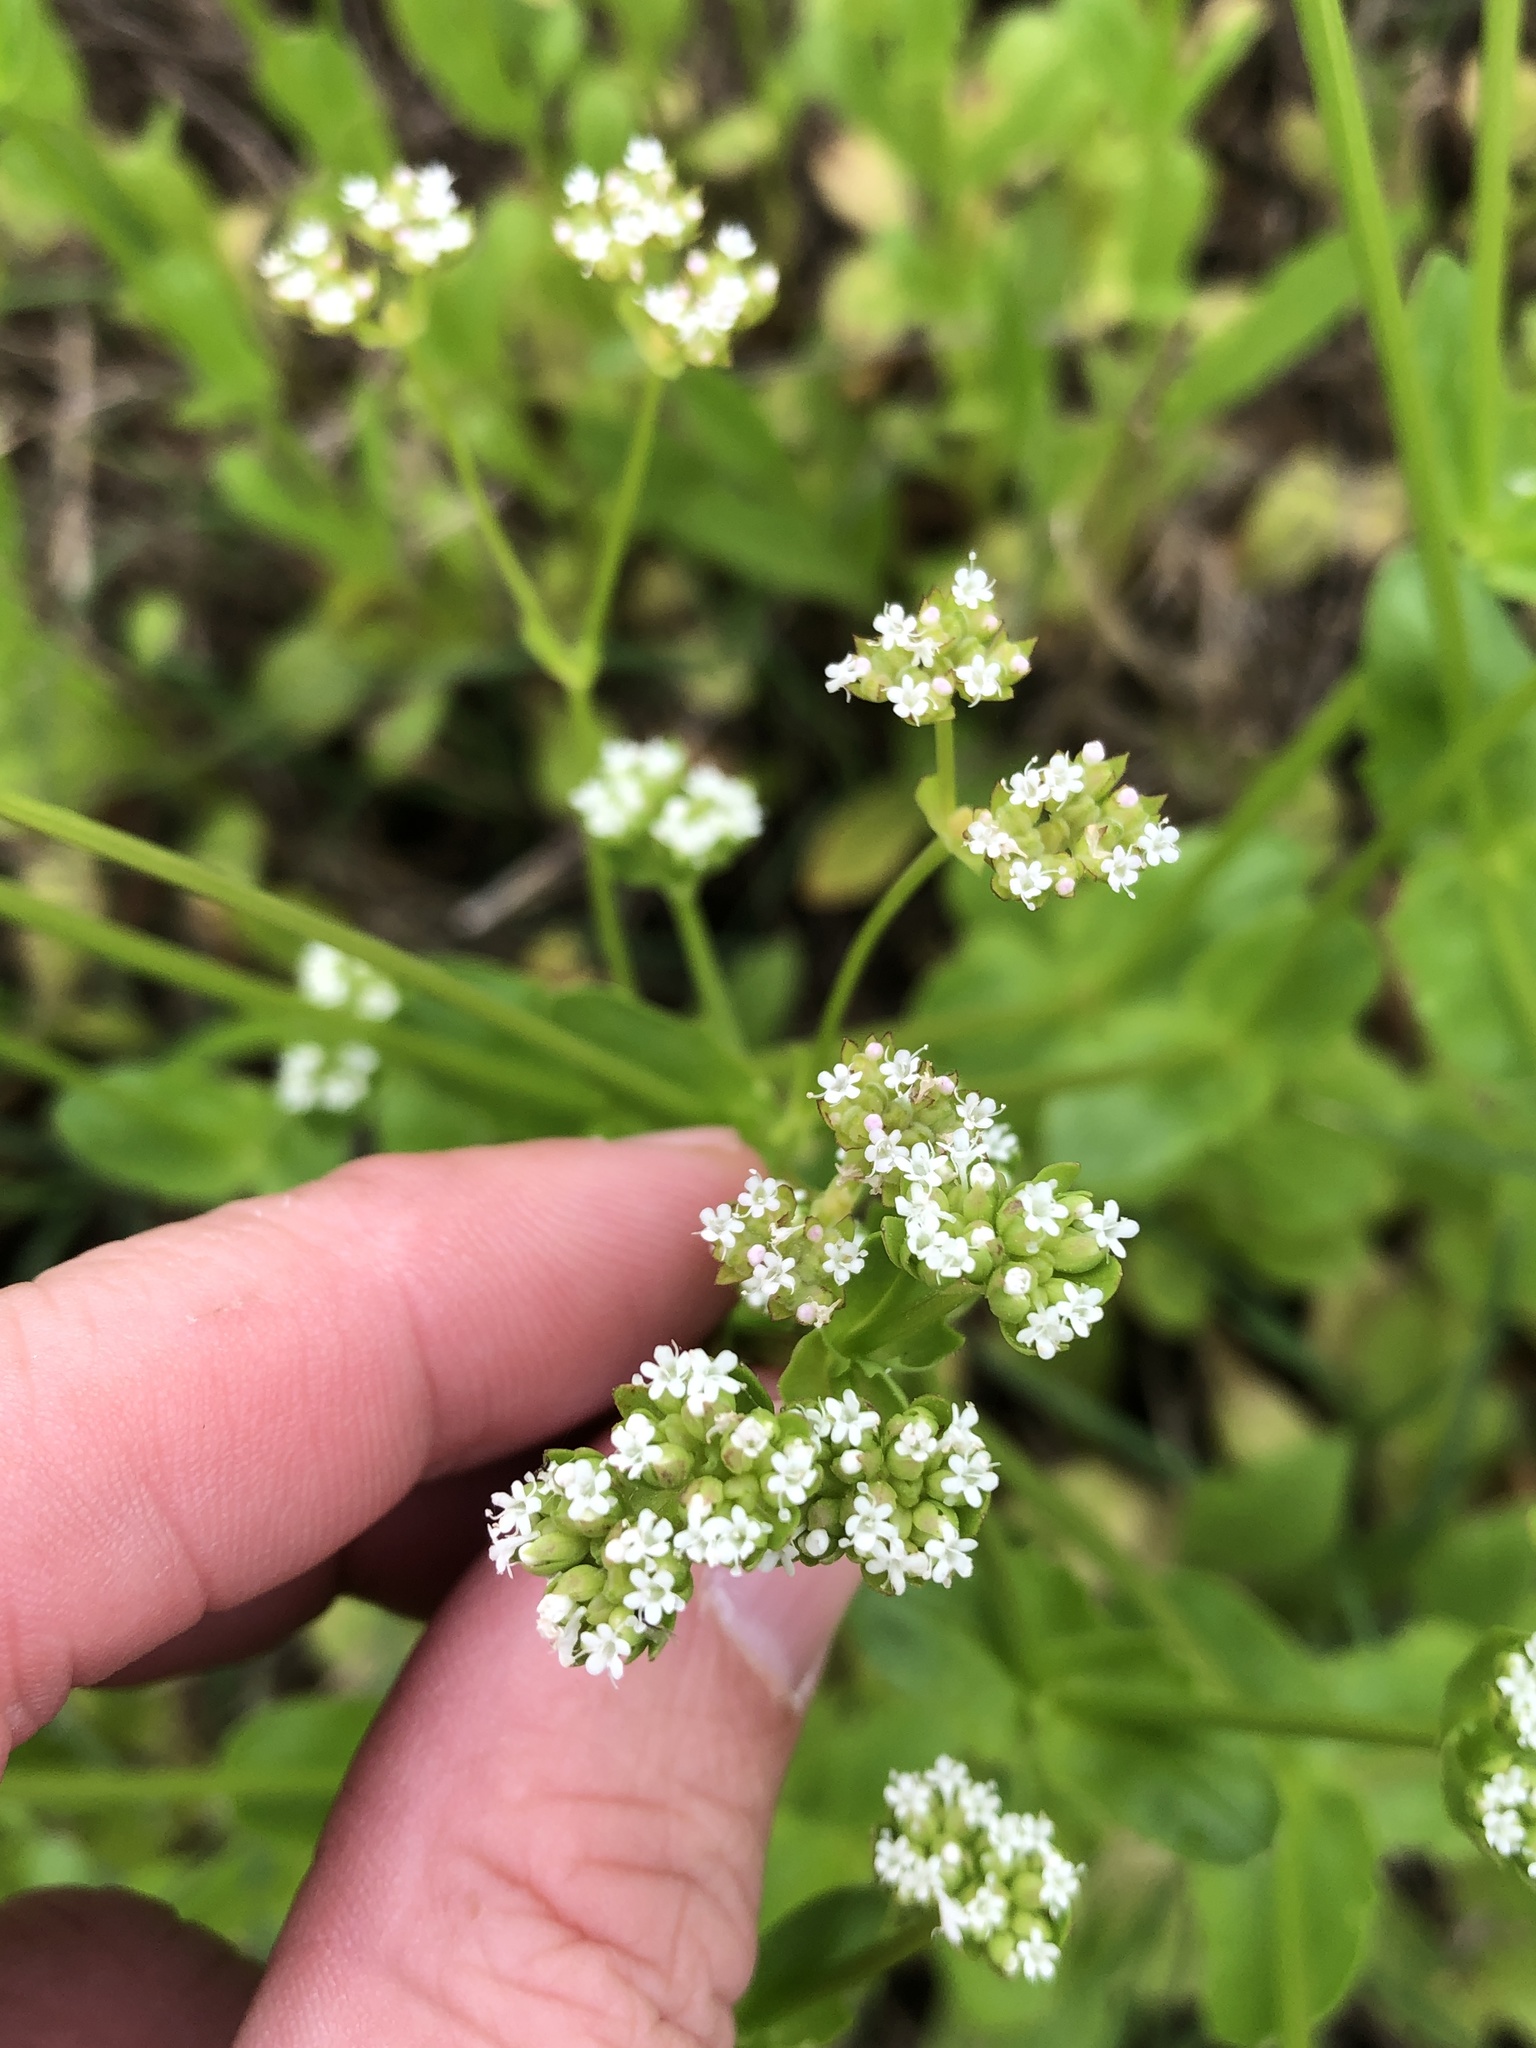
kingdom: Plantae
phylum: Tracheophyta
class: Magnoliopsida
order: Dipsacales
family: Caprifoliaceae
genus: Valerianella
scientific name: Valerianella radiata
